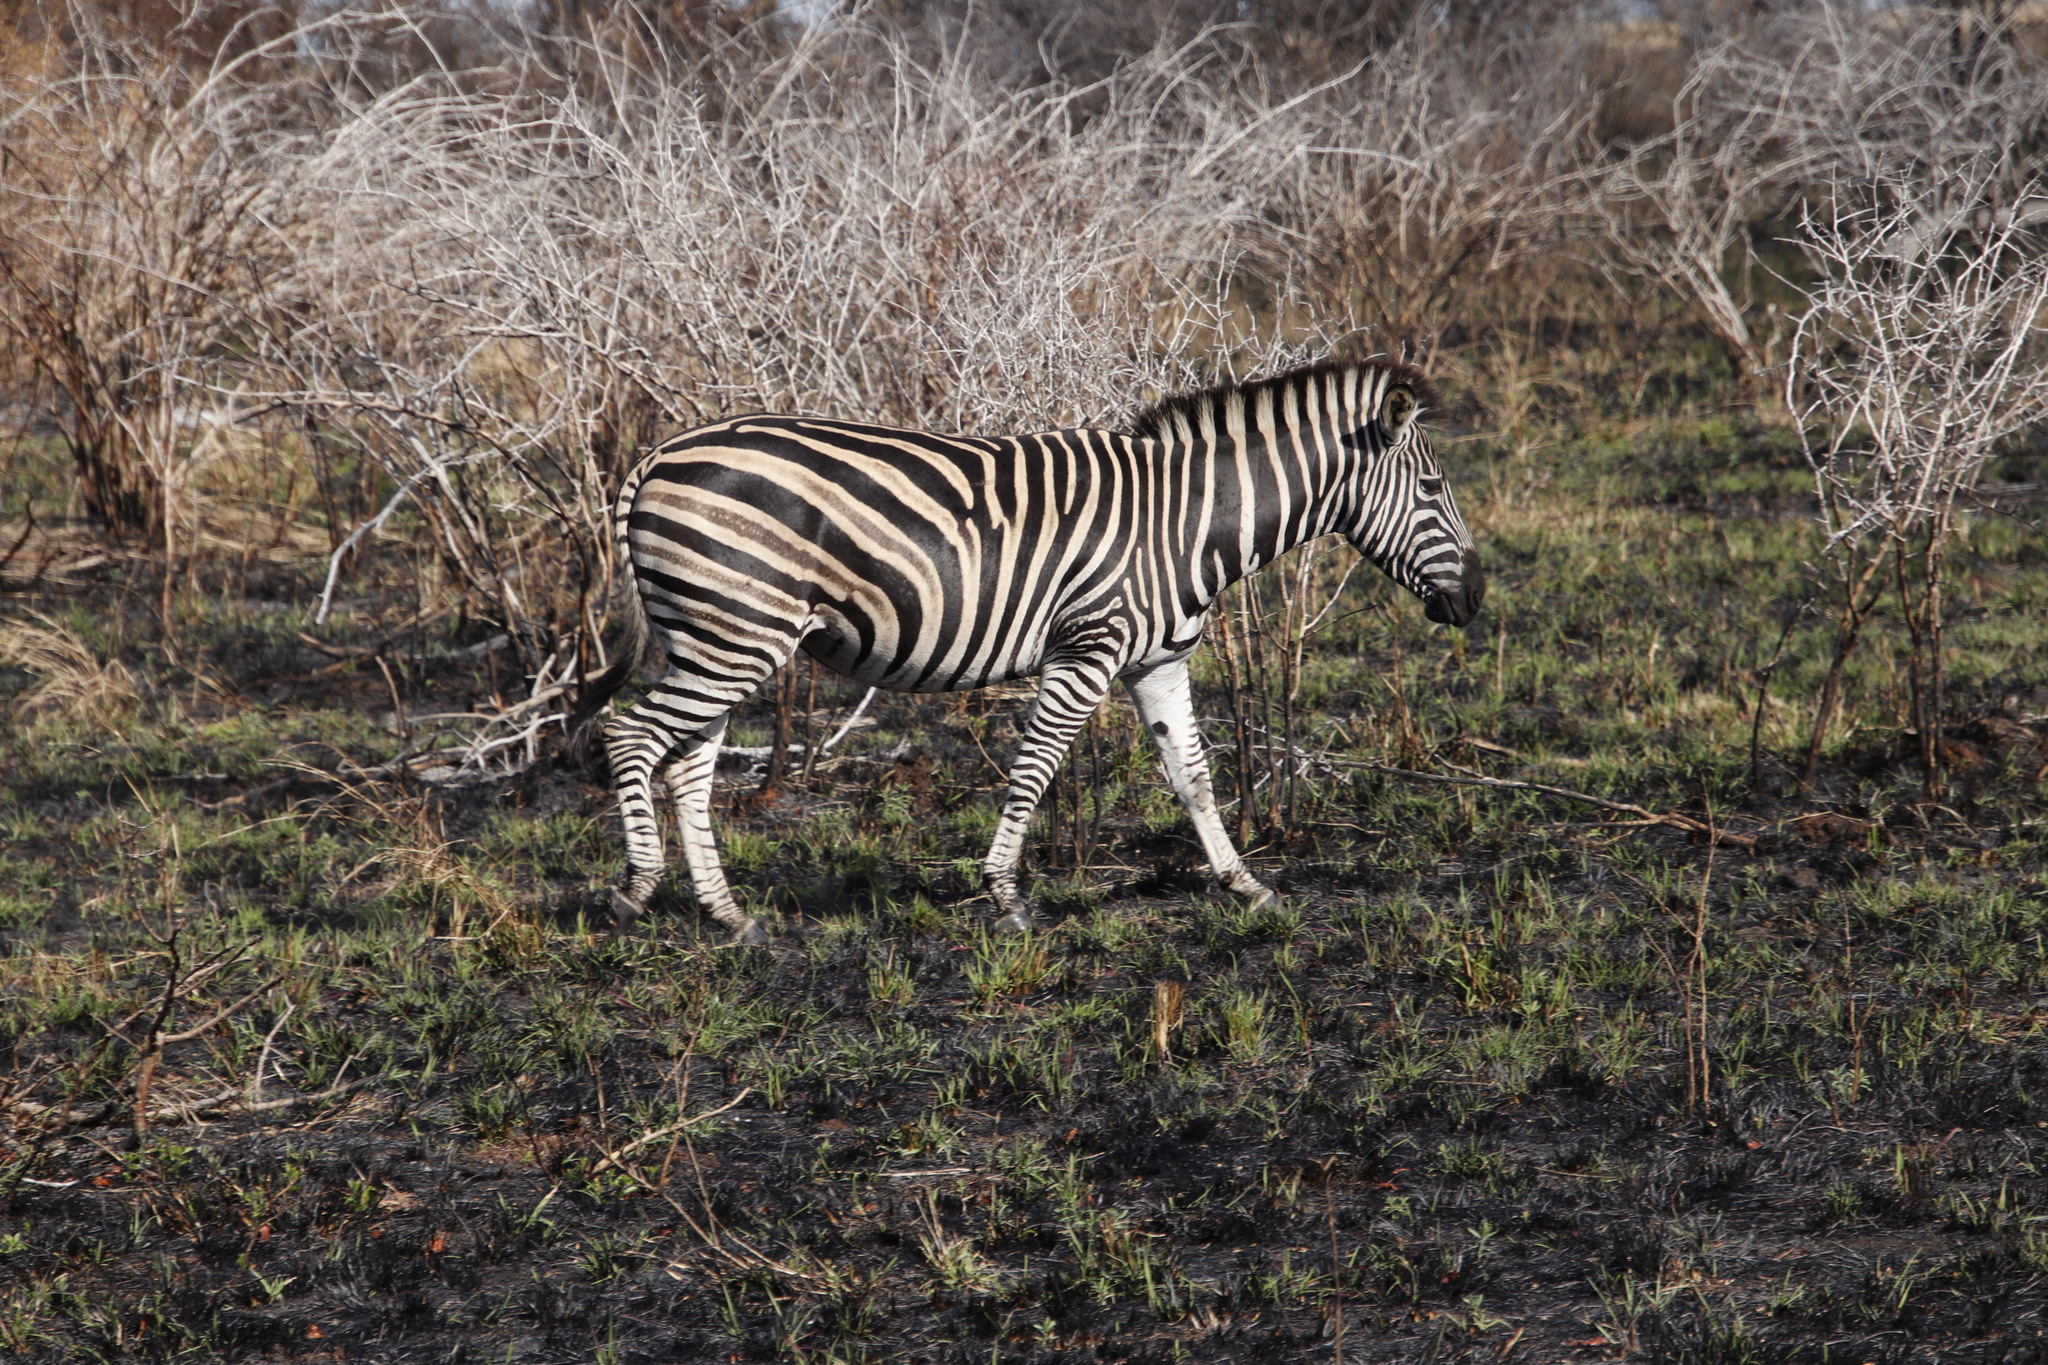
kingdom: Animalia
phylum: Chordata
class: Mammalia
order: Perissodactyla
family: Equidae
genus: Equus
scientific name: Equus quagga
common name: Plains zebra
